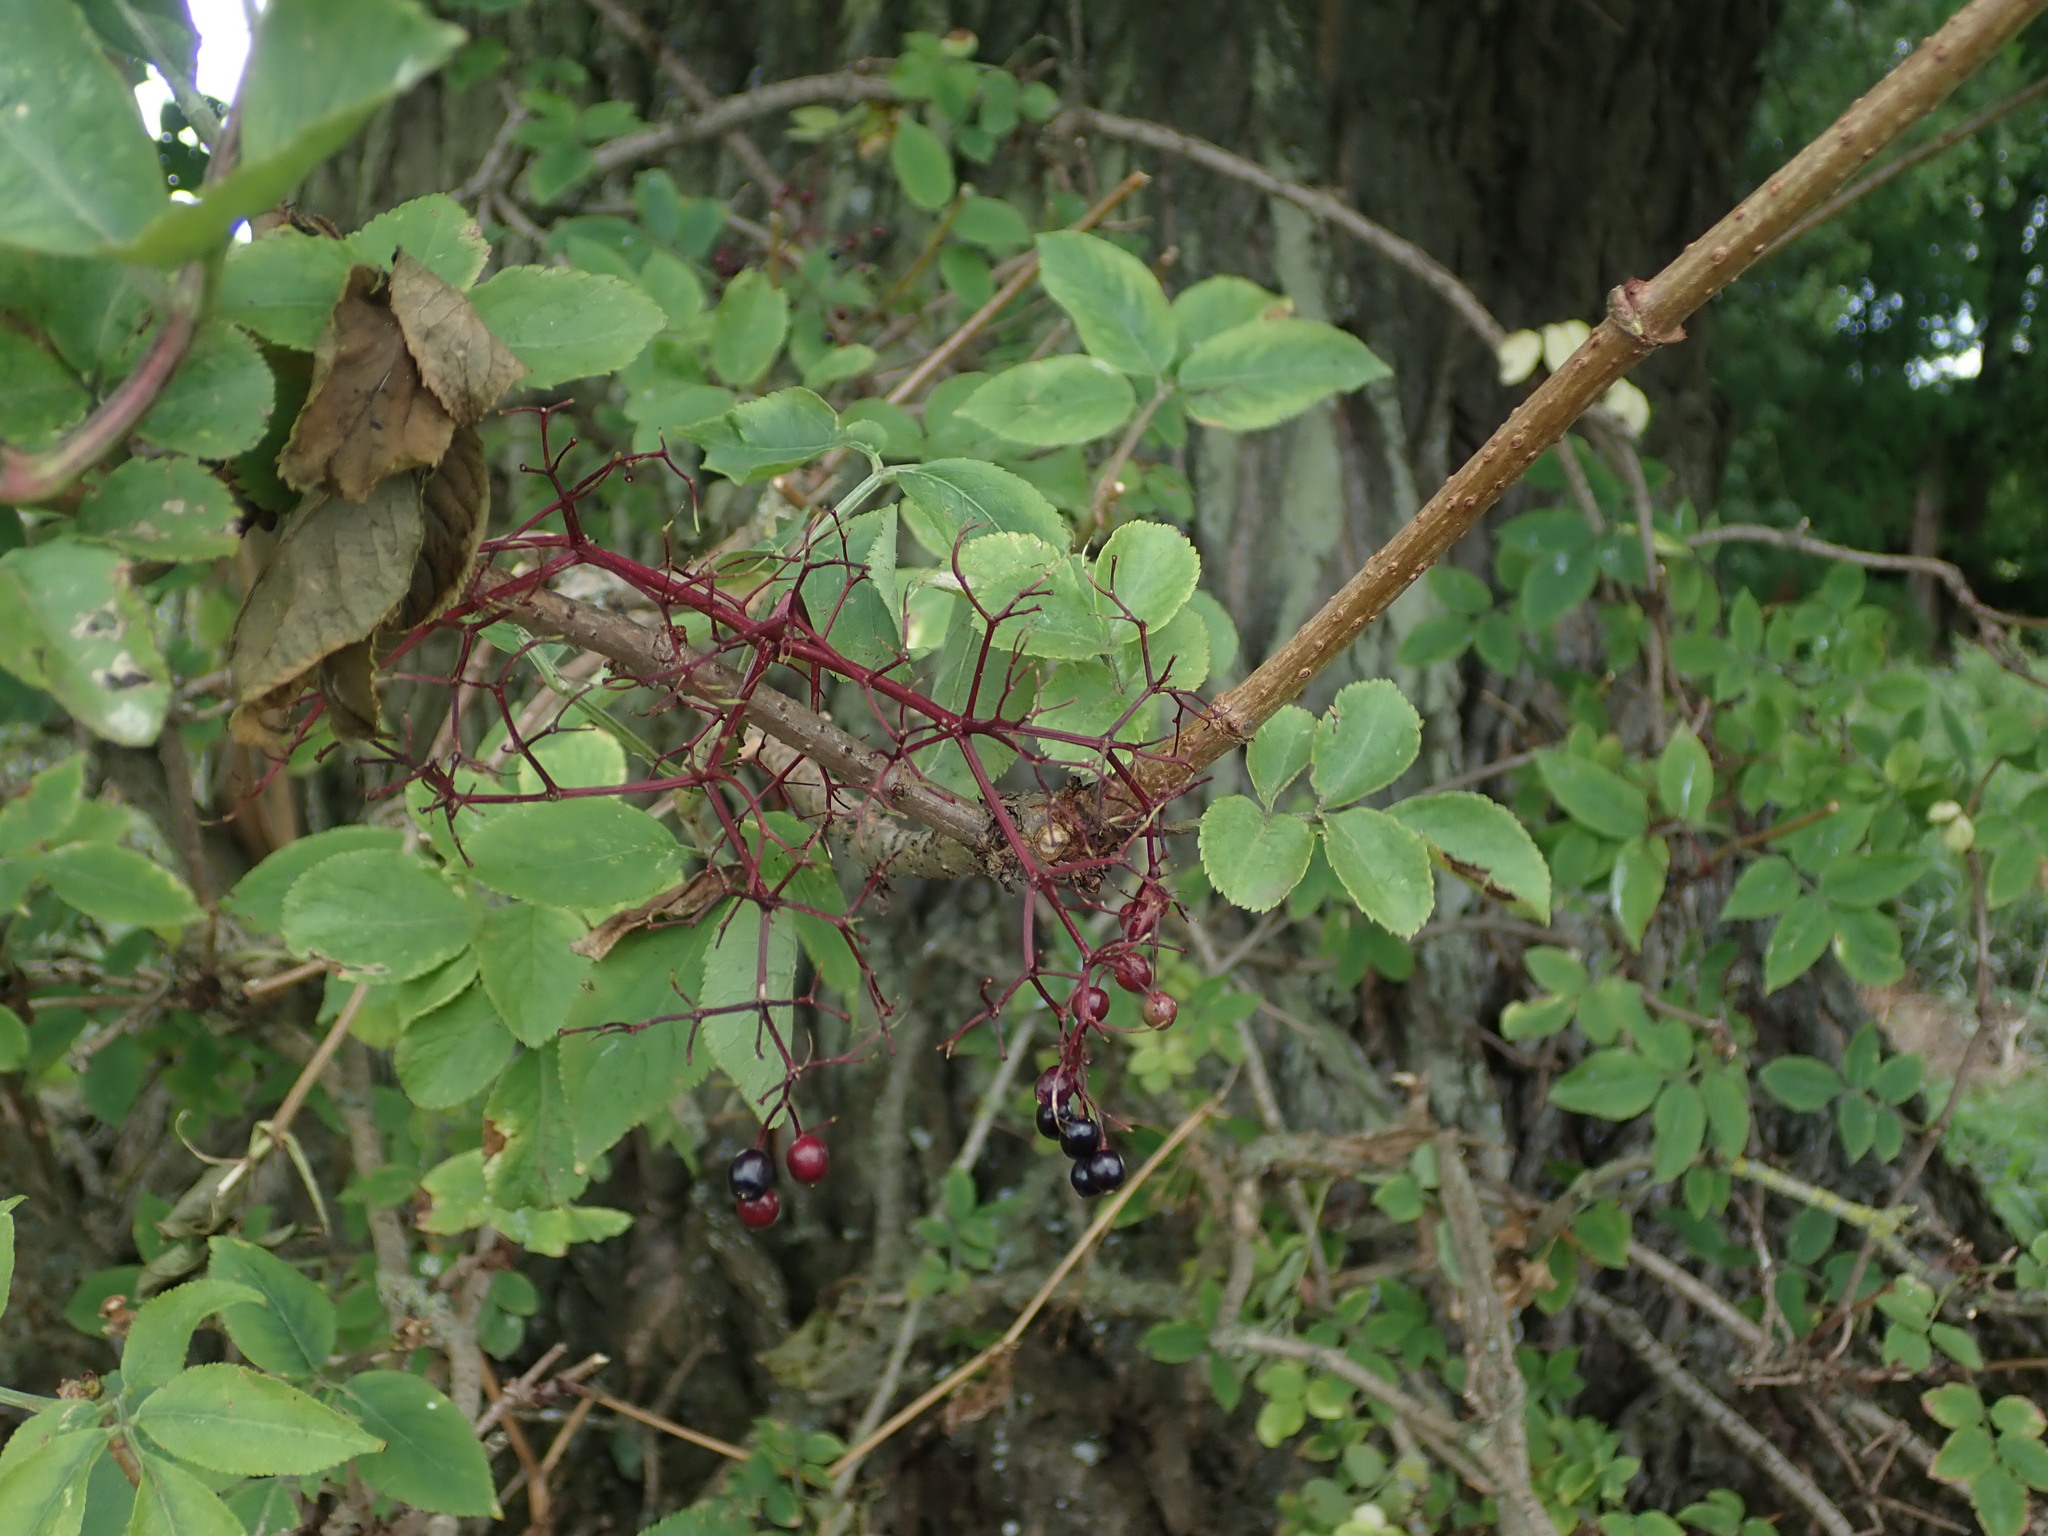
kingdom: Plantae
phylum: Tracheophyta
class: Magnoliopsida
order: Dipsacales
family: Viburnaceae
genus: Sambucus
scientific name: Sambucus nigra
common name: Elder
